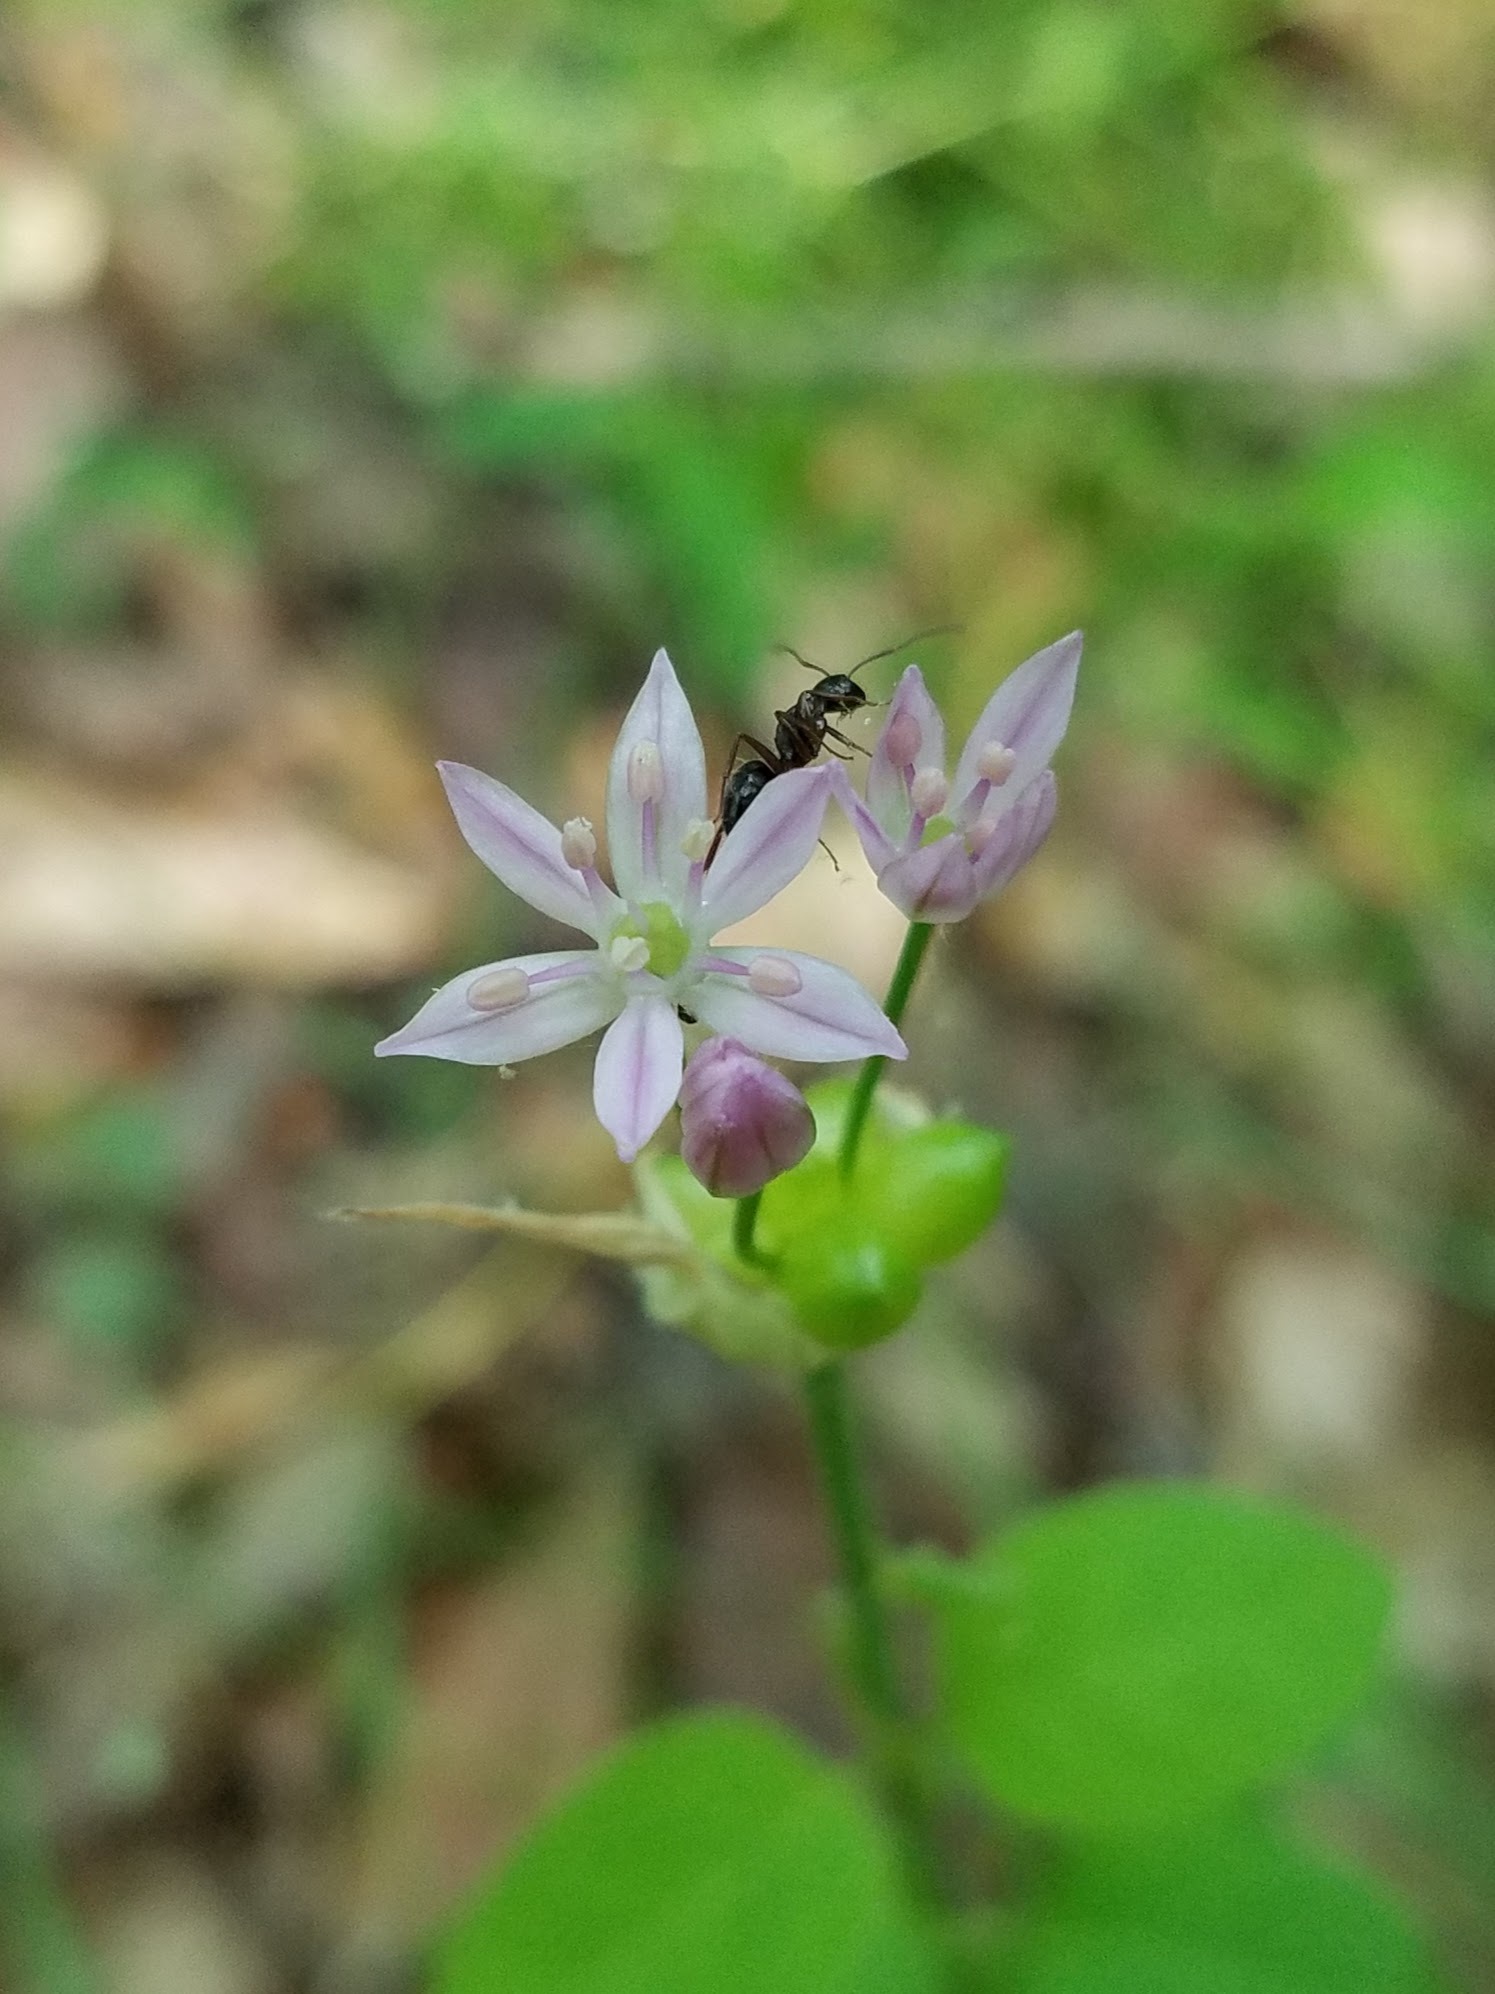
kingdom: Plantae
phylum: Tracheophyta
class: Liliopsida
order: Asparagales
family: Amaryllidaceae
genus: Allium
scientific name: Allium canadense
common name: Meadow garlic
